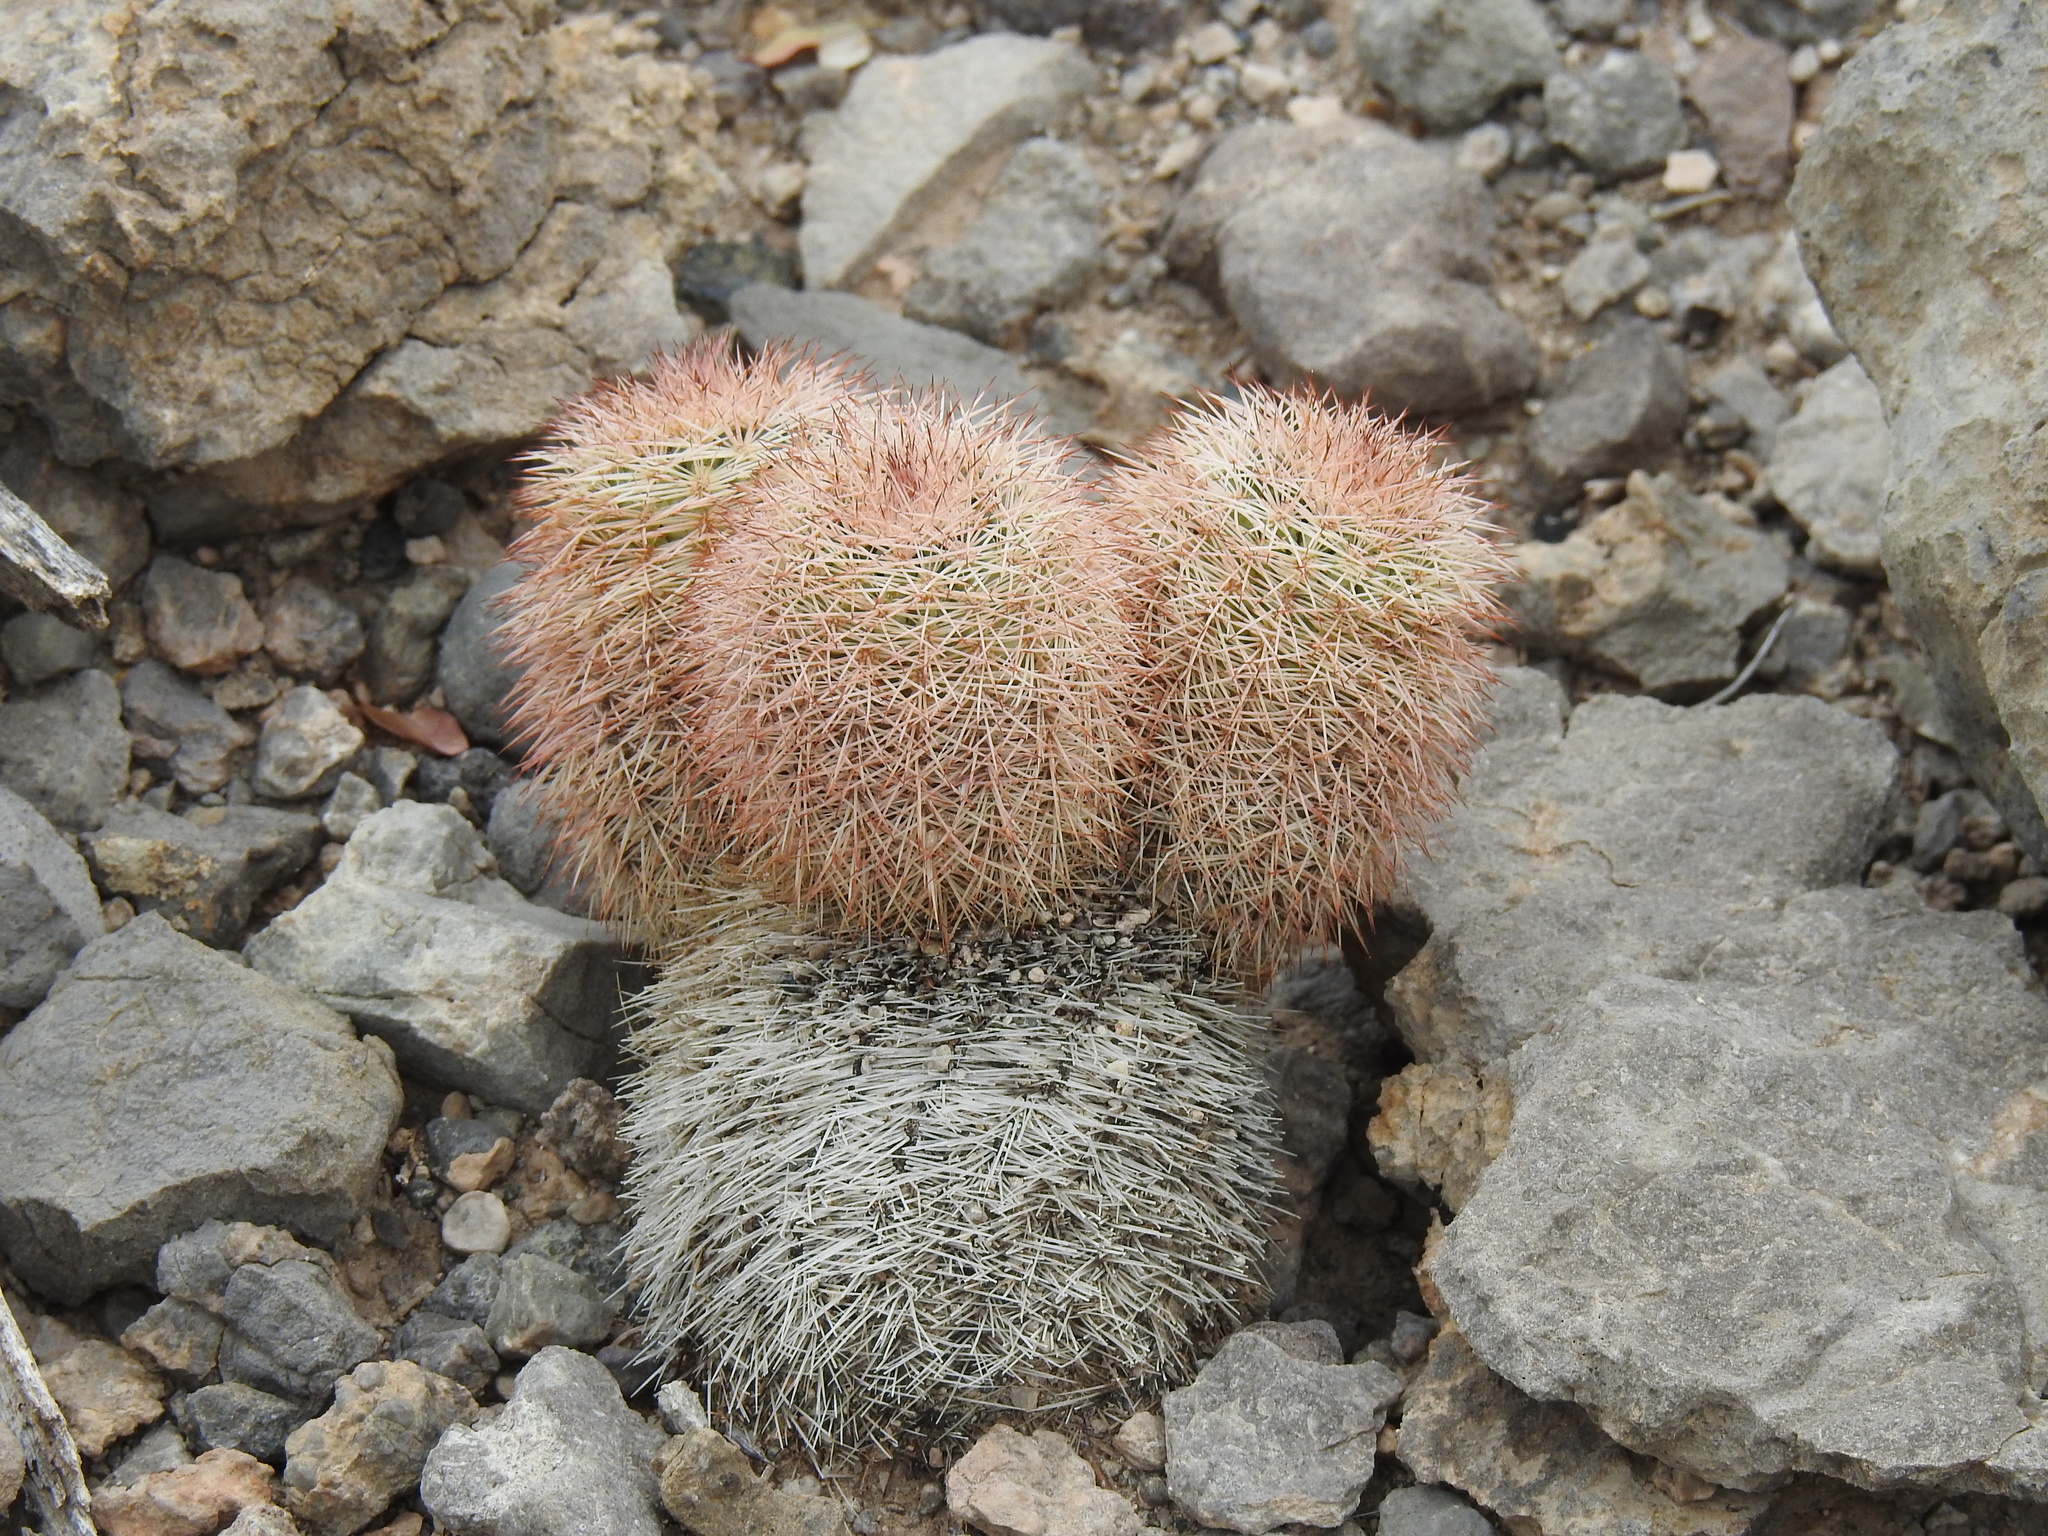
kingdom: Plantae
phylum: Tracheophyta
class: Magnoliopsida
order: Caryophyllales
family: Cactaceae
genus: Echinocereus
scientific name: Echinocereus dasyacanthus
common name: Spiny hedgehog cactus
